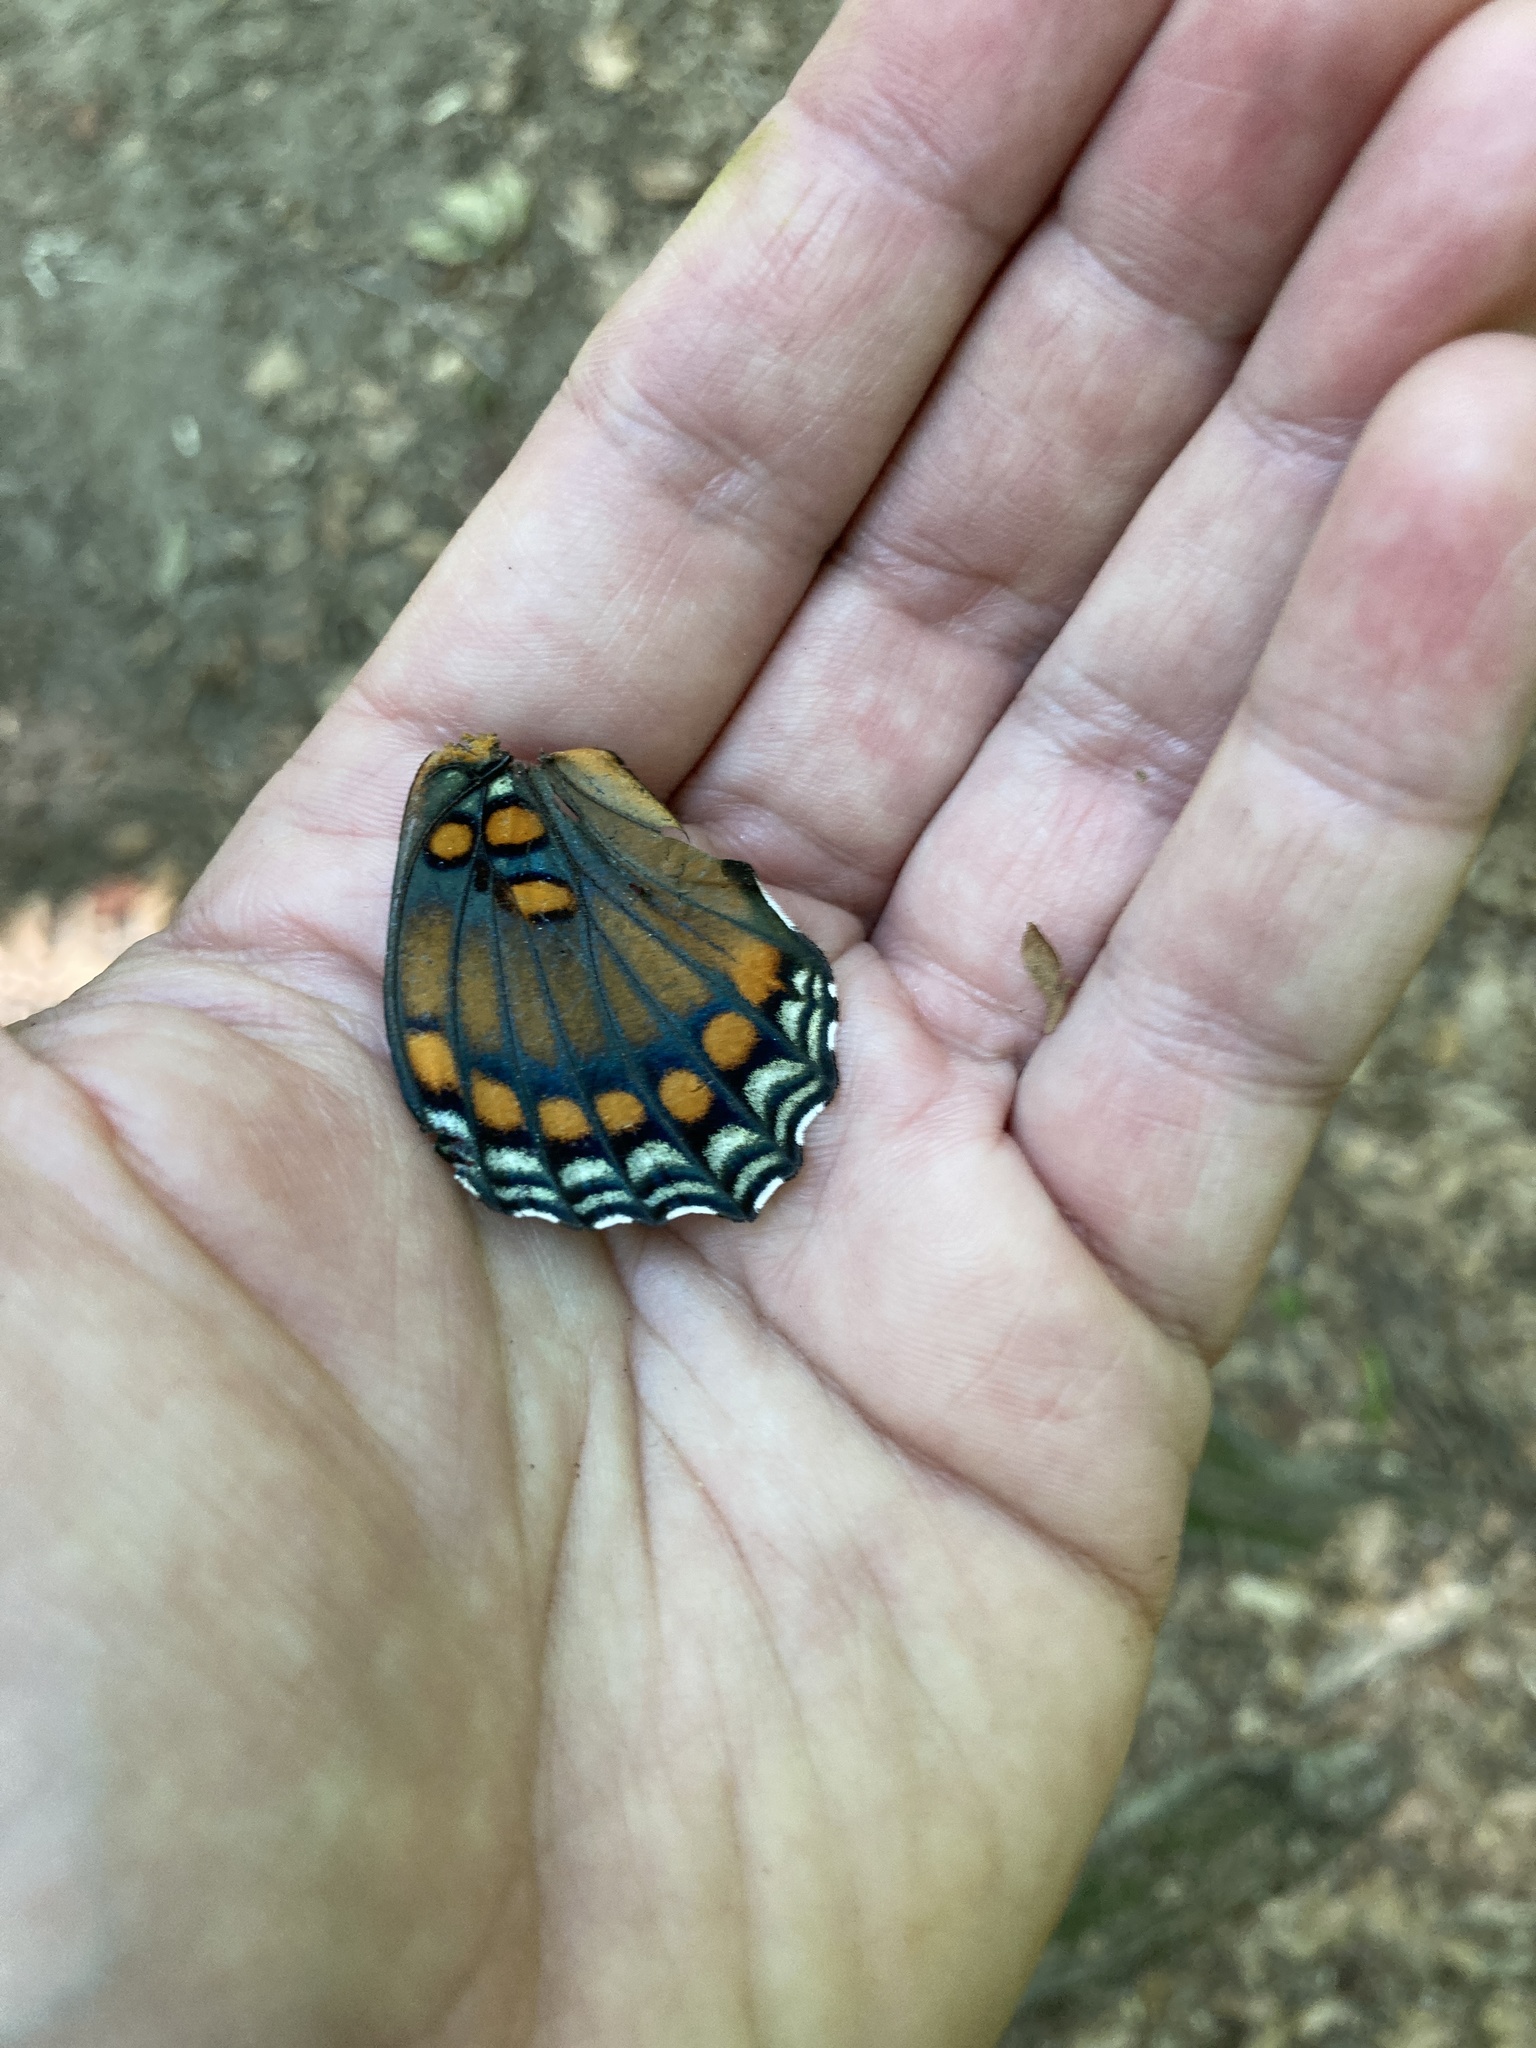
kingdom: Animalia
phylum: Arthropoda
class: Insecta
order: Lepidoptera
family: Nymphalidae
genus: Limenitis
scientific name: Limenitis arthemis
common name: Red-spotted admiral
